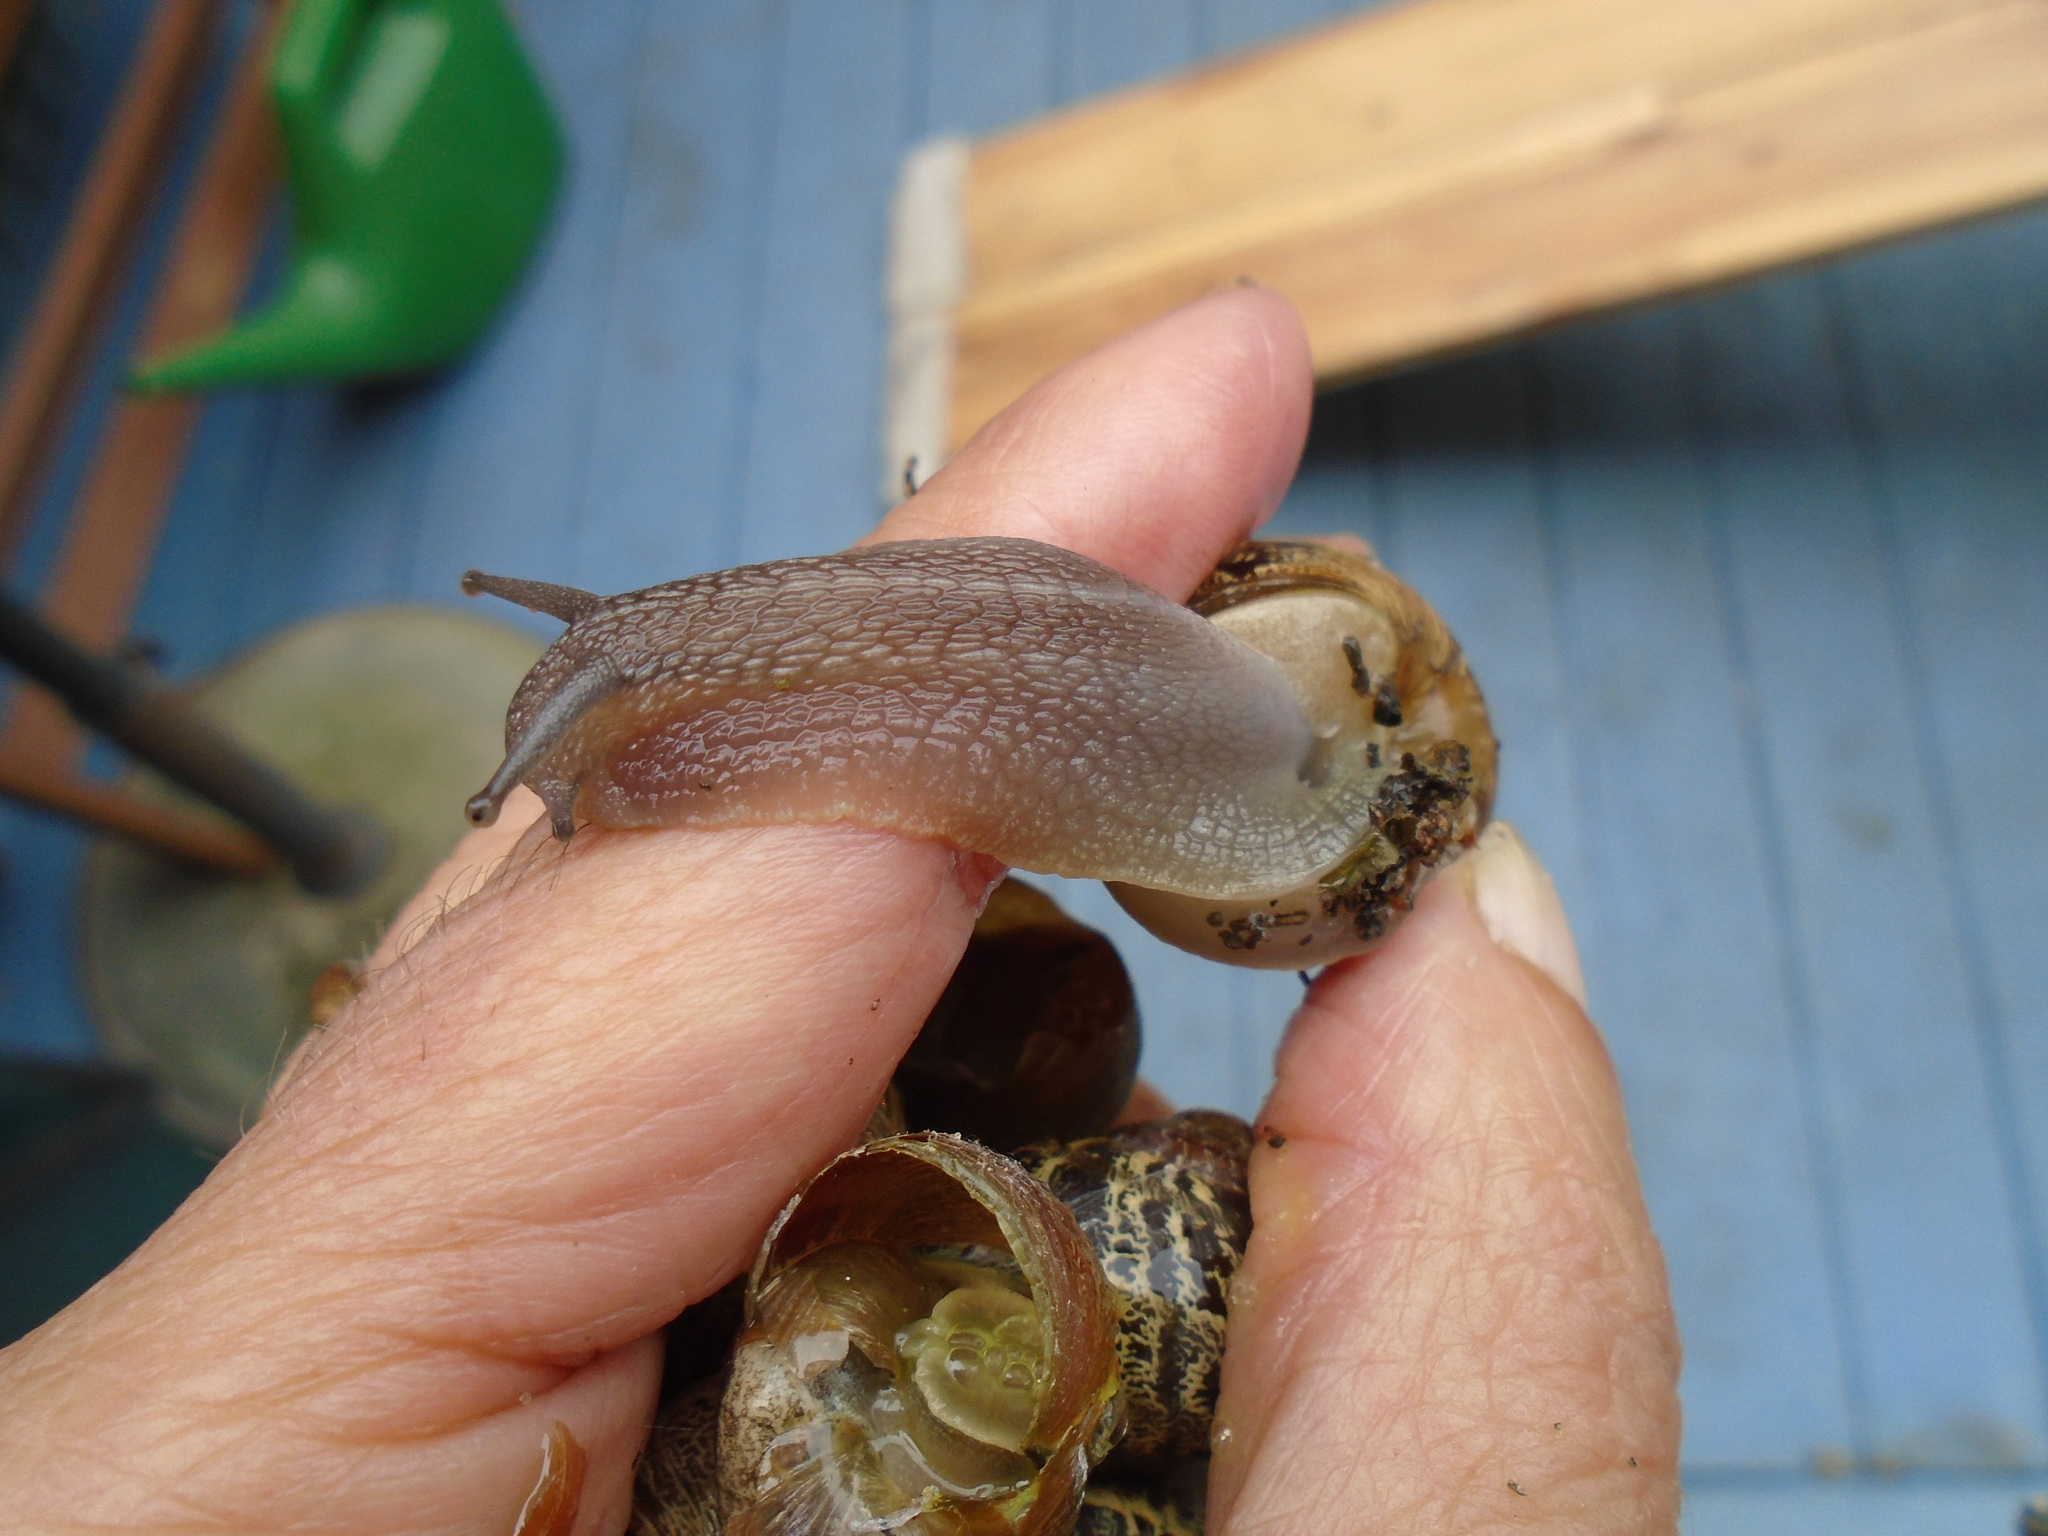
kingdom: Animalia
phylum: Mollusca
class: Gastropoda
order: Stylommatophora
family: Helicidae
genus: Cornu
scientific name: Cornu aspersum
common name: Brown garden snail
